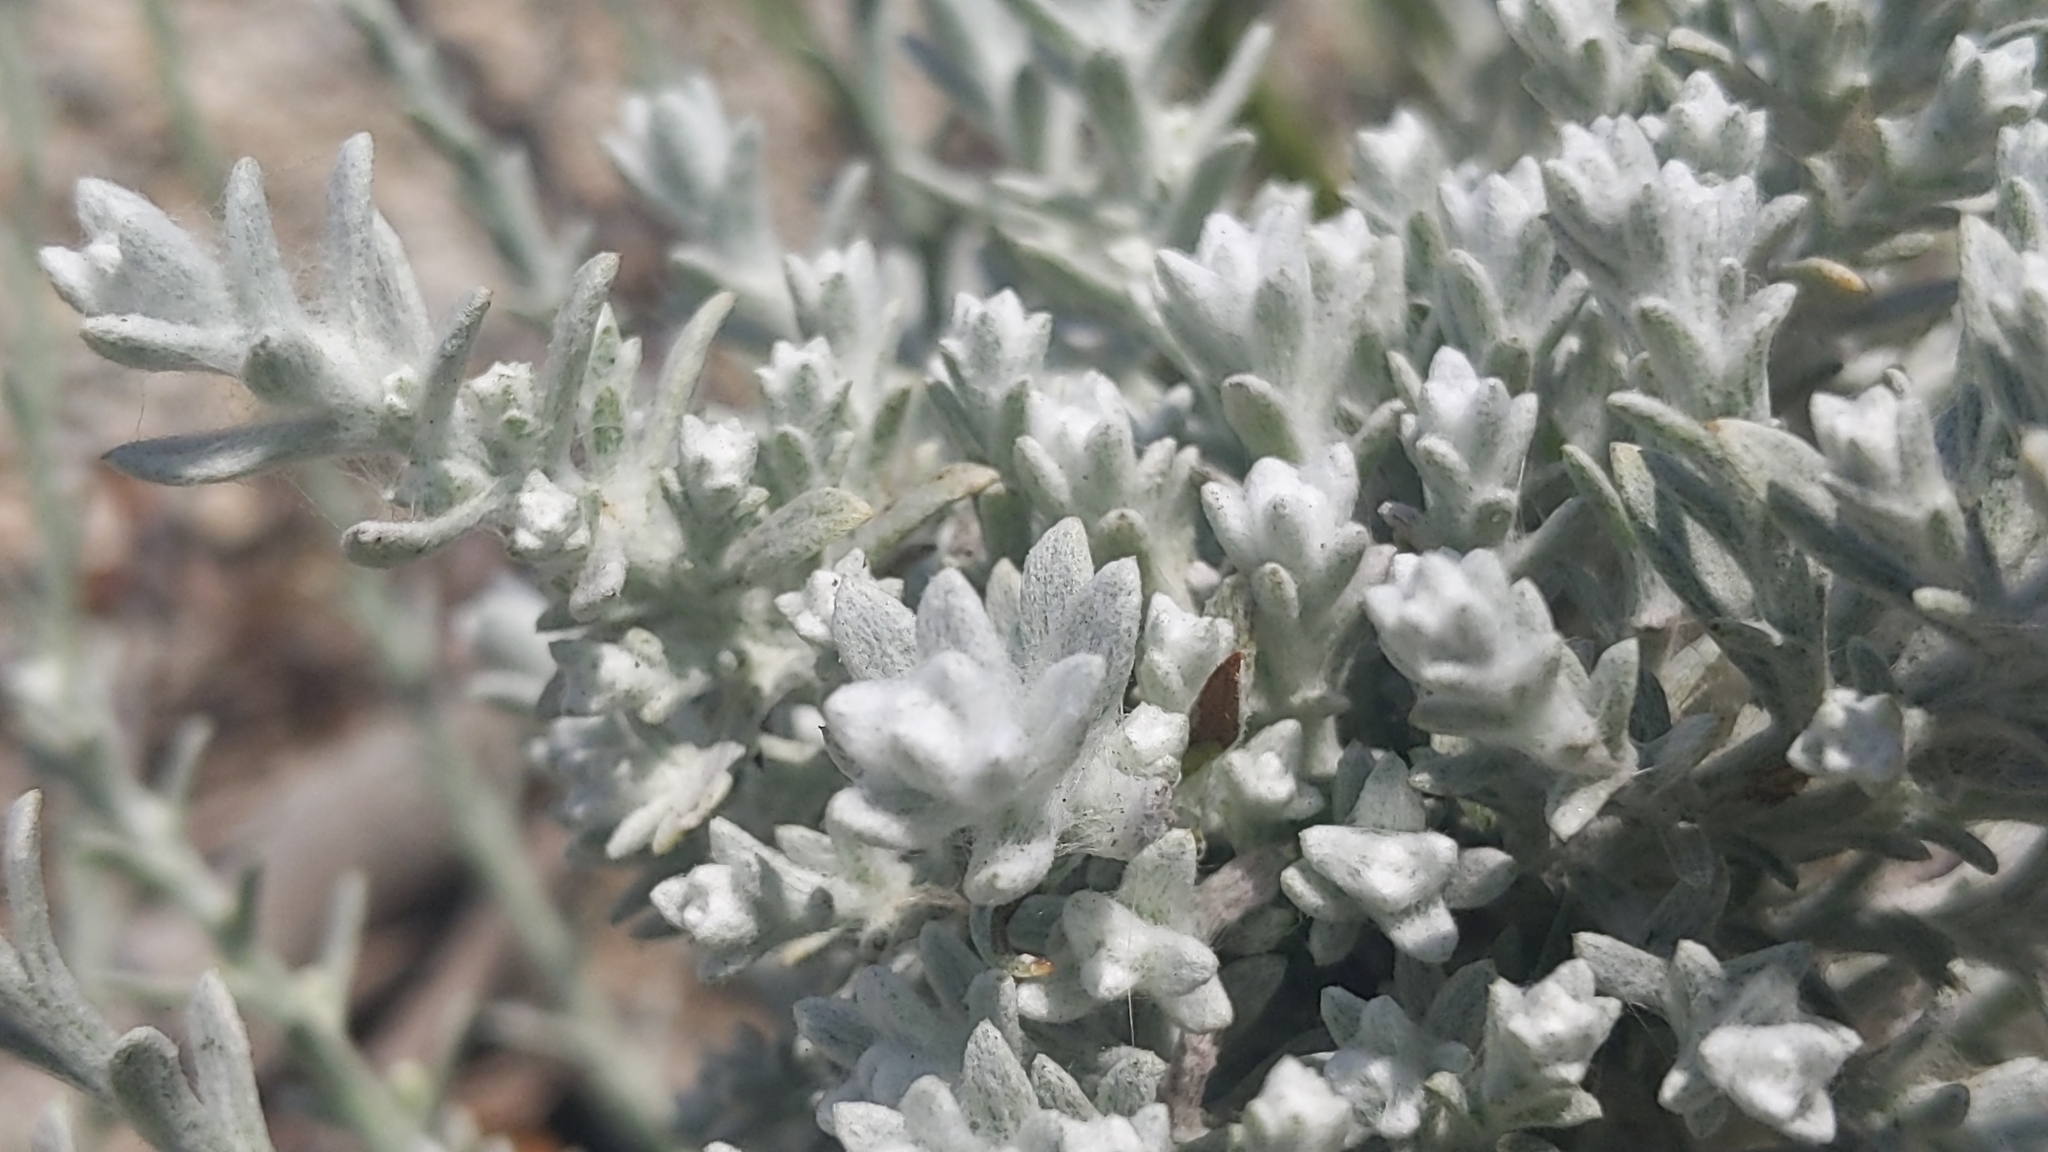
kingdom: Plantae
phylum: Tracheophyta
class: Magnoliopsida
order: Asterales
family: Asteraceae
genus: Lepidospartum
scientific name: Lepidospartum squamatum
